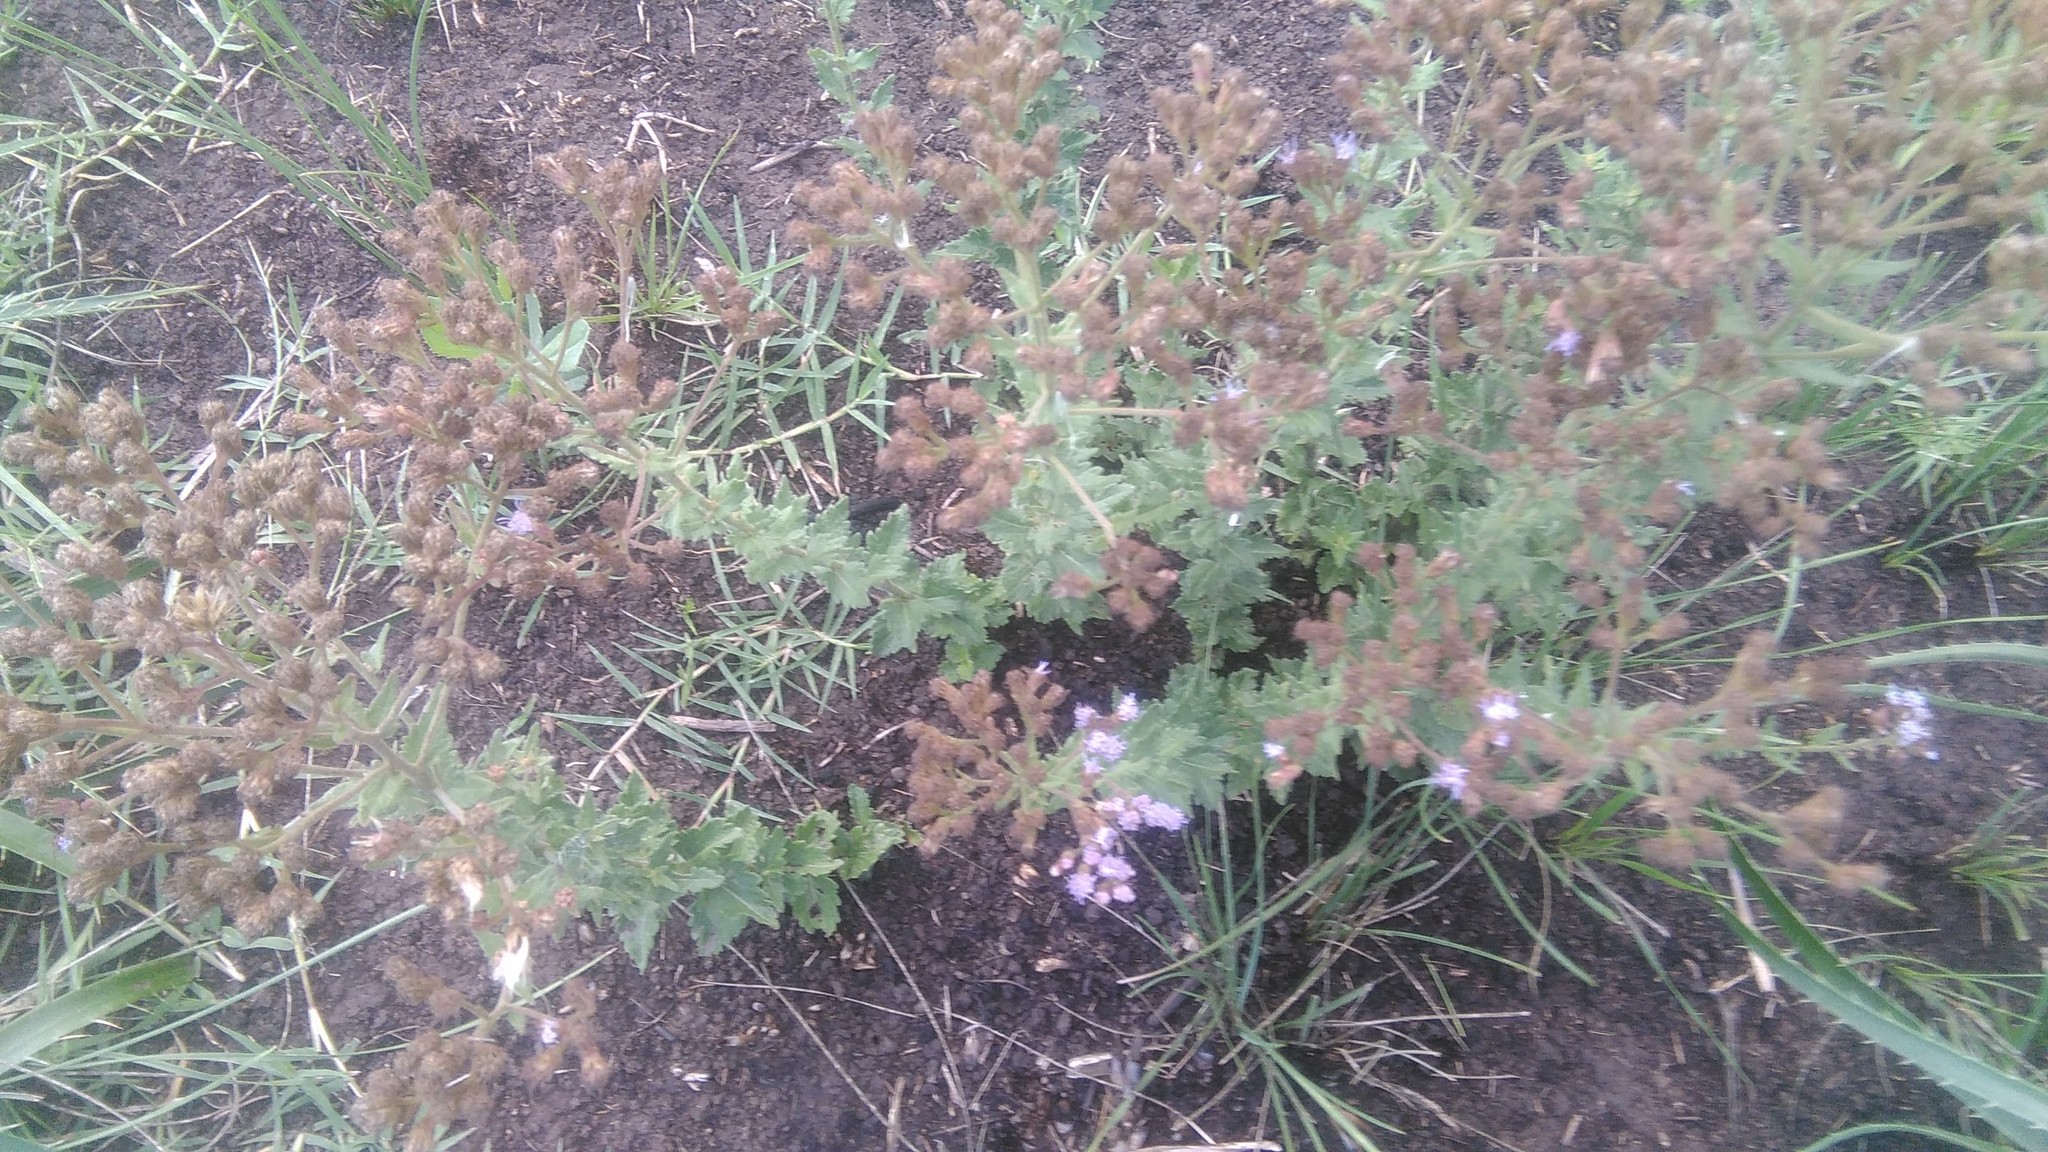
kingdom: Plantae
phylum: Tracheophyta
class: Magnoliopsida
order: Asterales
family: Asteraceae
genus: Chromolaena
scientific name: Chromolaena hirsuta
